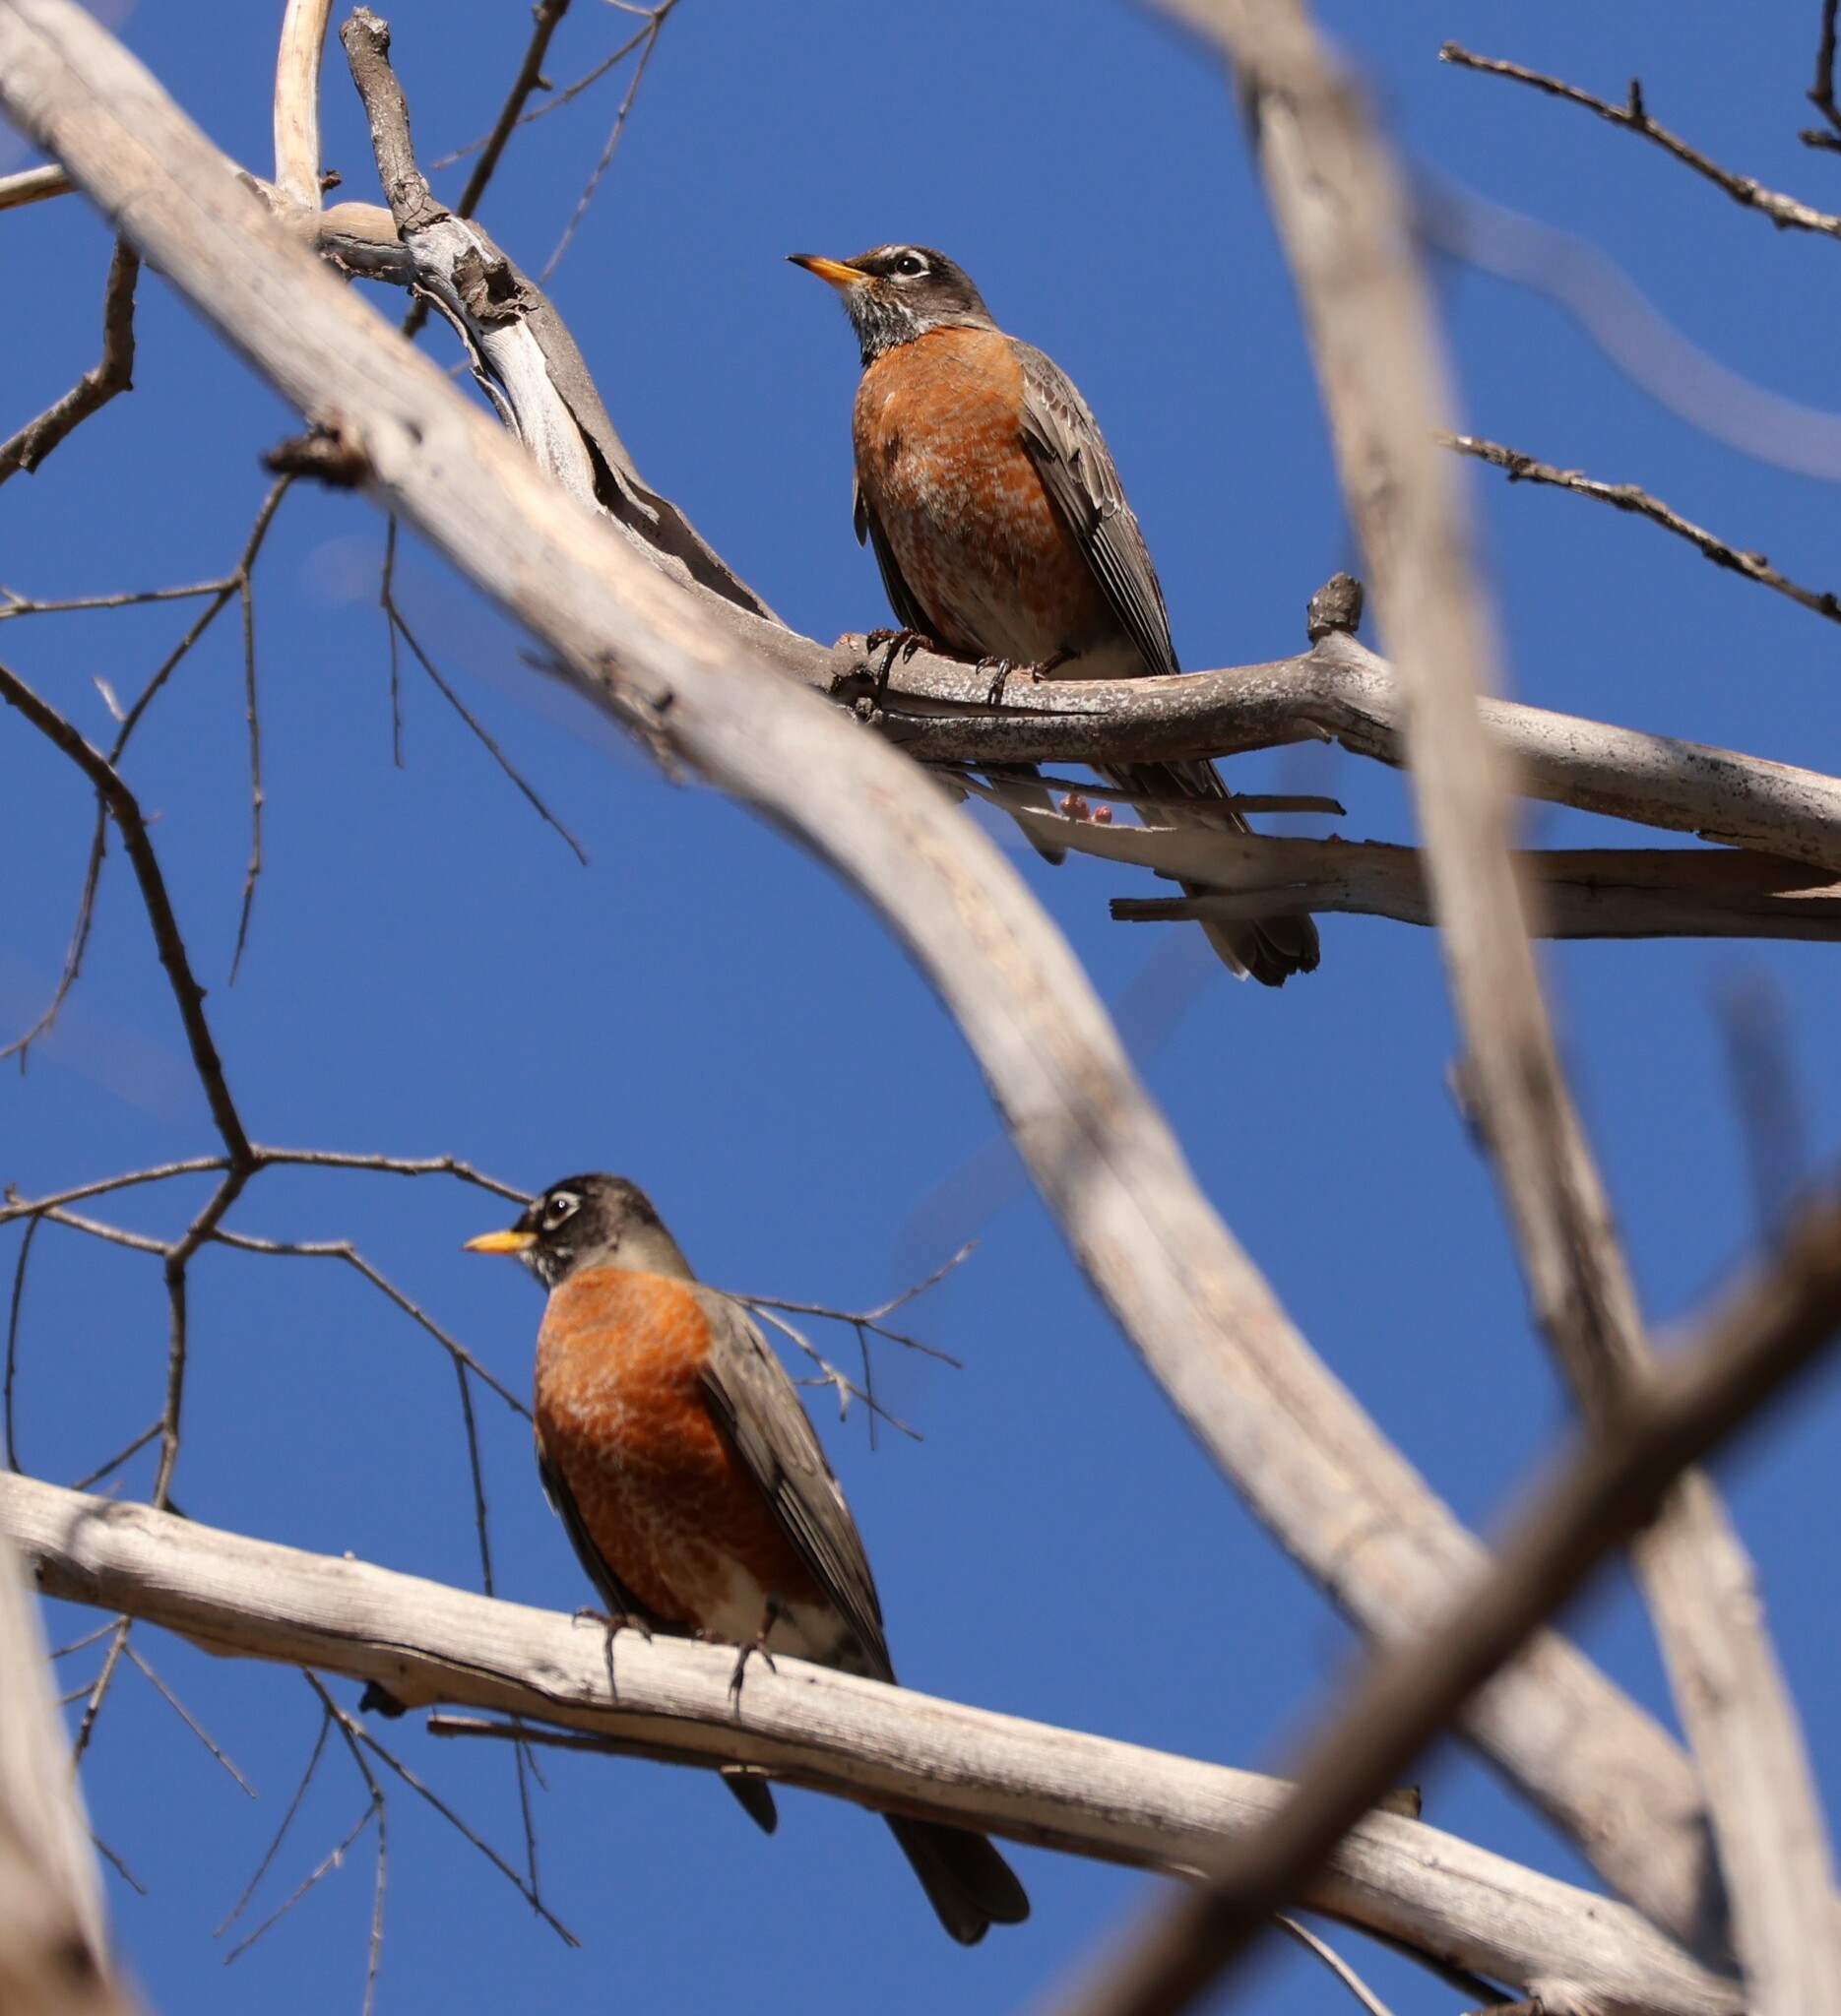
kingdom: Animalia
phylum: Chordata
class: Aves
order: Passeriformes
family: Turdidae
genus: Turdus
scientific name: Turdus migratorius
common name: American robin
